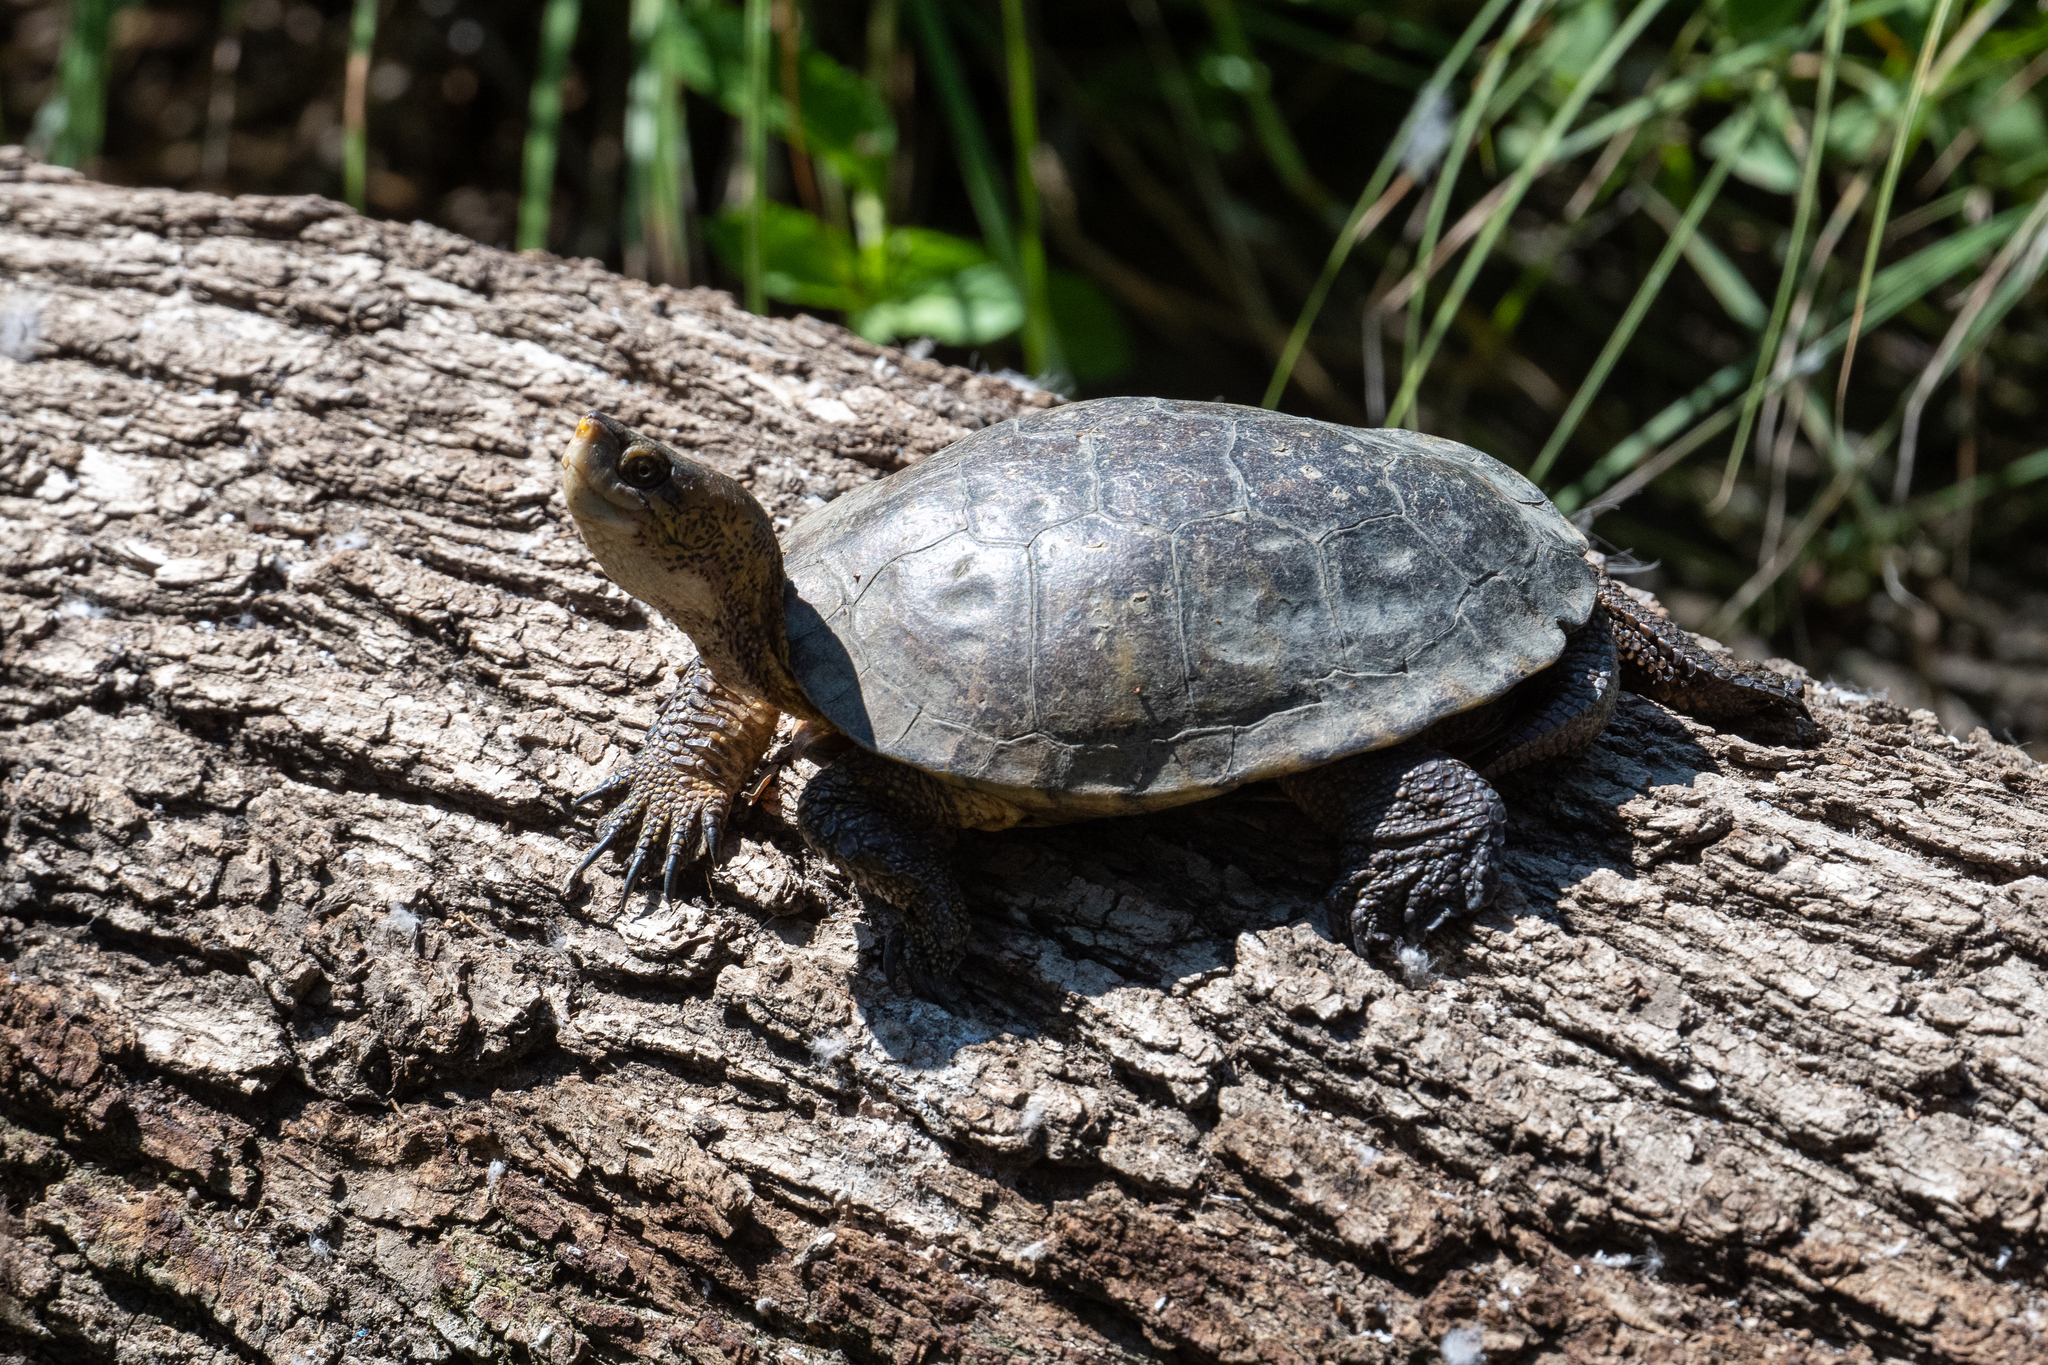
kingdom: Animalia
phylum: Chordata
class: Testudines
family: Emydidae
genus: Actinemys
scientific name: Actinemys marmorata
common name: Western pond turtle
